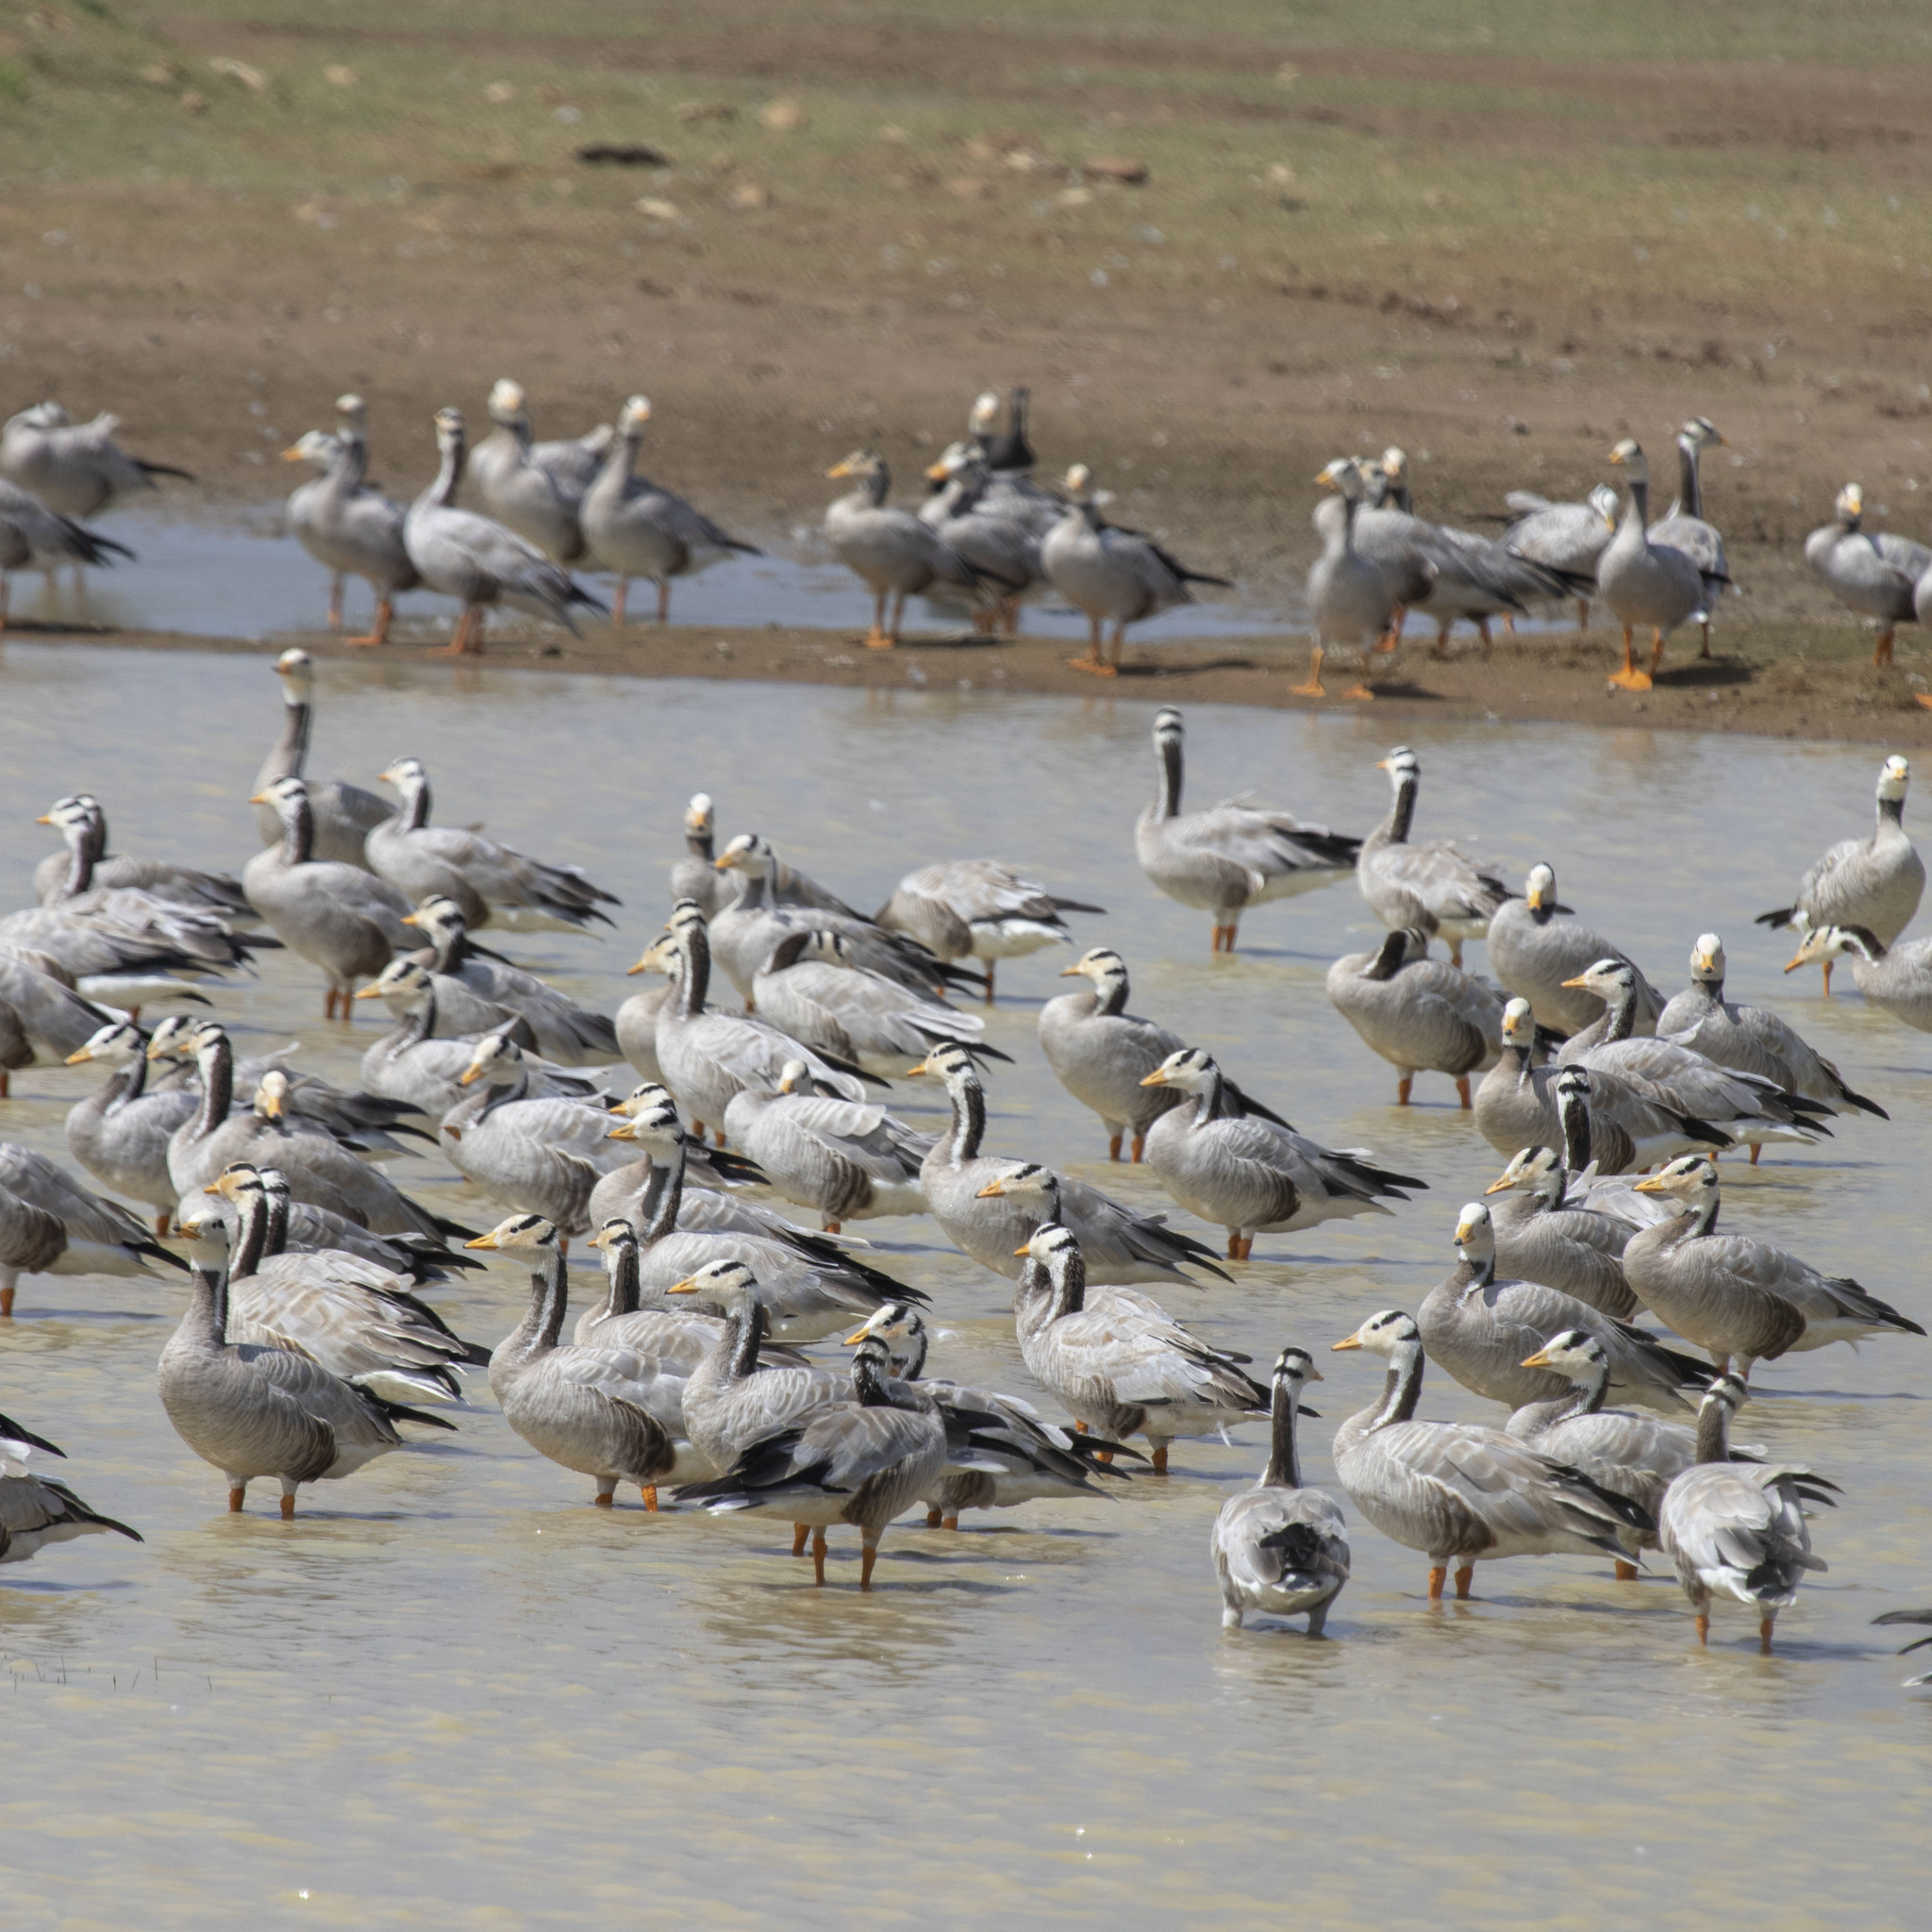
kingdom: Animalia
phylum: Chordata
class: Aves
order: Anseriformes
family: Anatidae
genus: Anser
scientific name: Anser indicus
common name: Bar-headed goose
